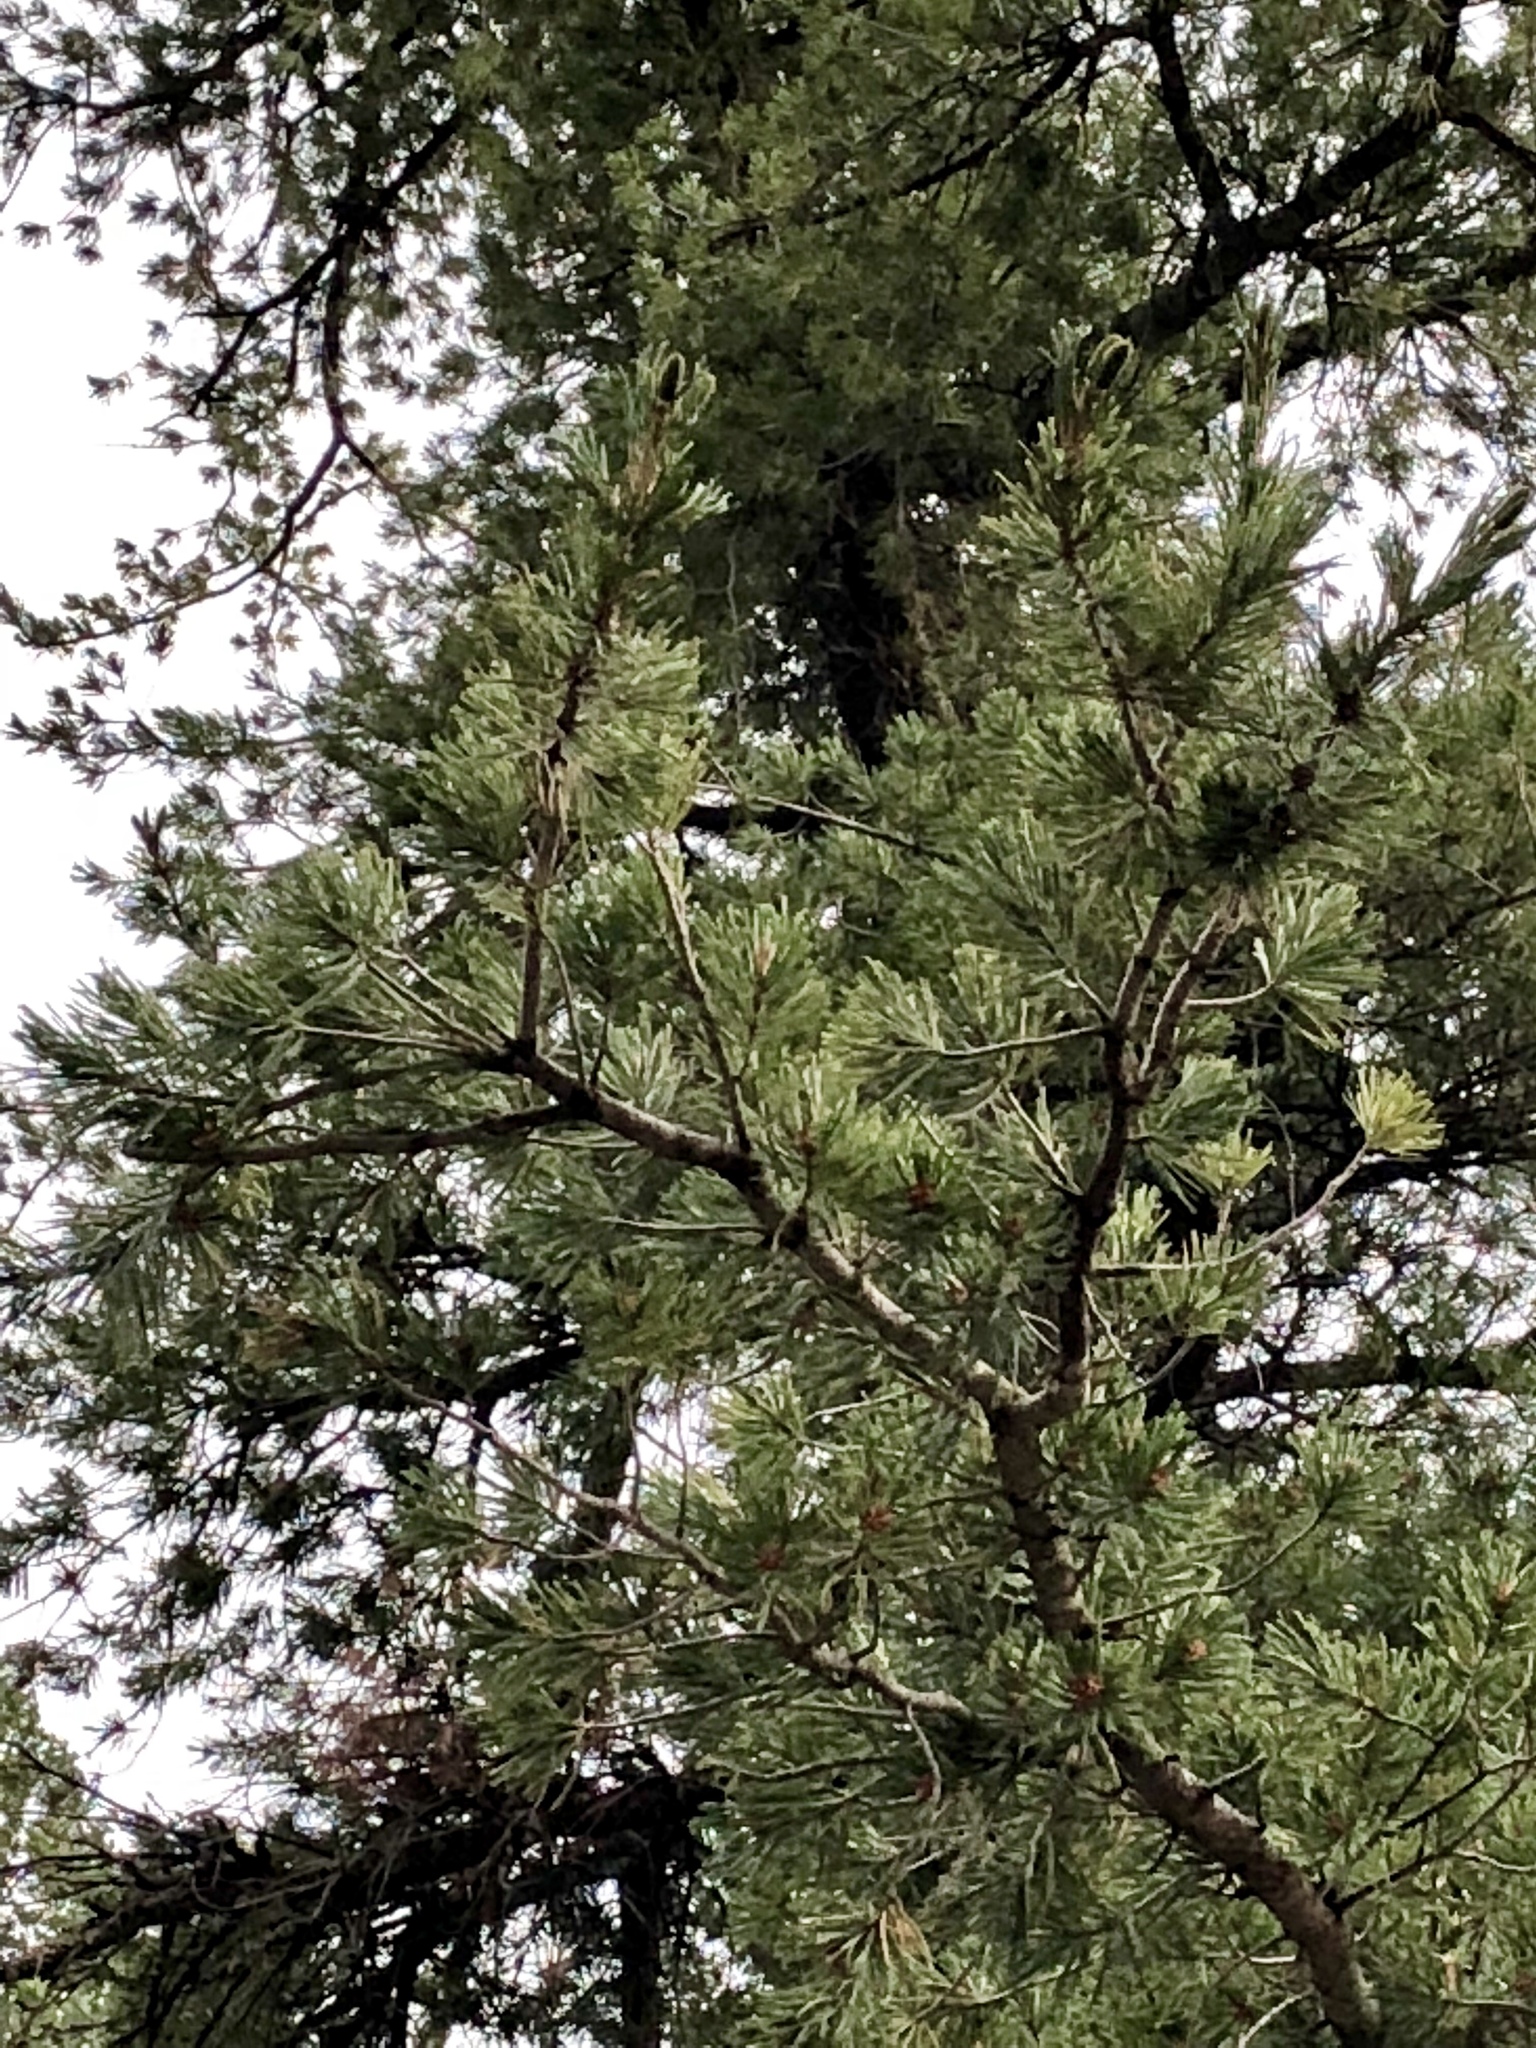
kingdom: Plantae
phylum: Tracheophyta
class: Pinopsida
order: Pinales
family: Pinaceae
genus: Pinus
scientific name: Pinus strobiformis
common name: Southwestern white pine
